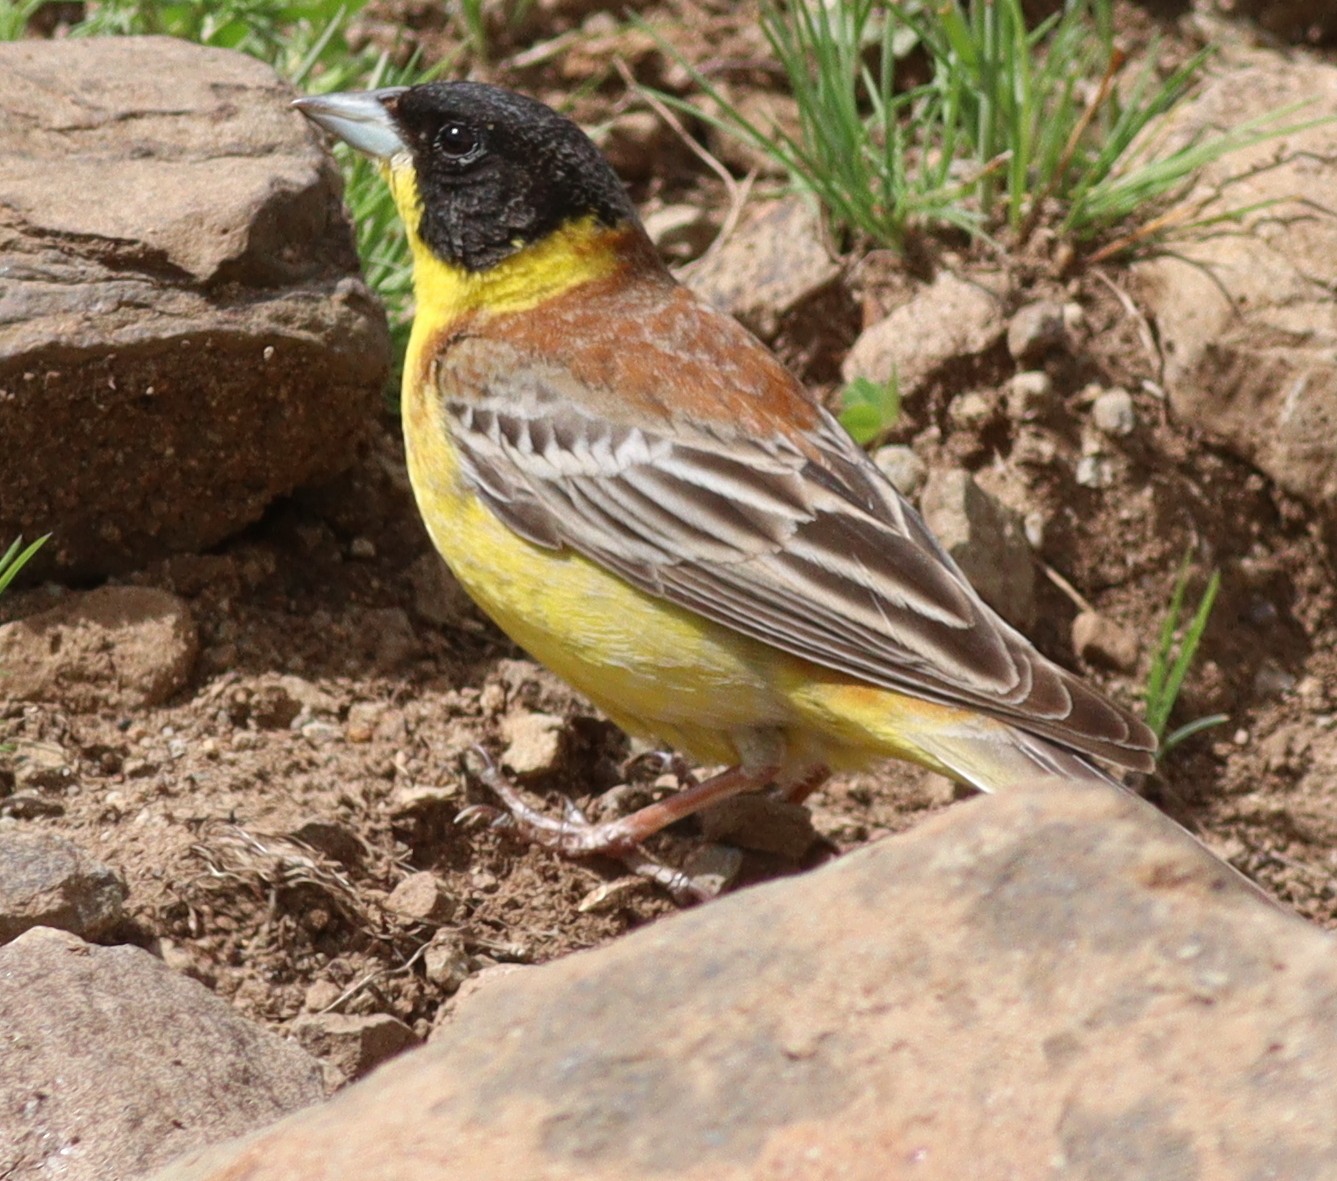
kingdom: Animalia
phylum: Chordata
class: Aves
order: Passeriformes
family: Emberizidae
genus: Emberiza
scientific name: Emberiza melanocephala
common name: Black-headed bunting
